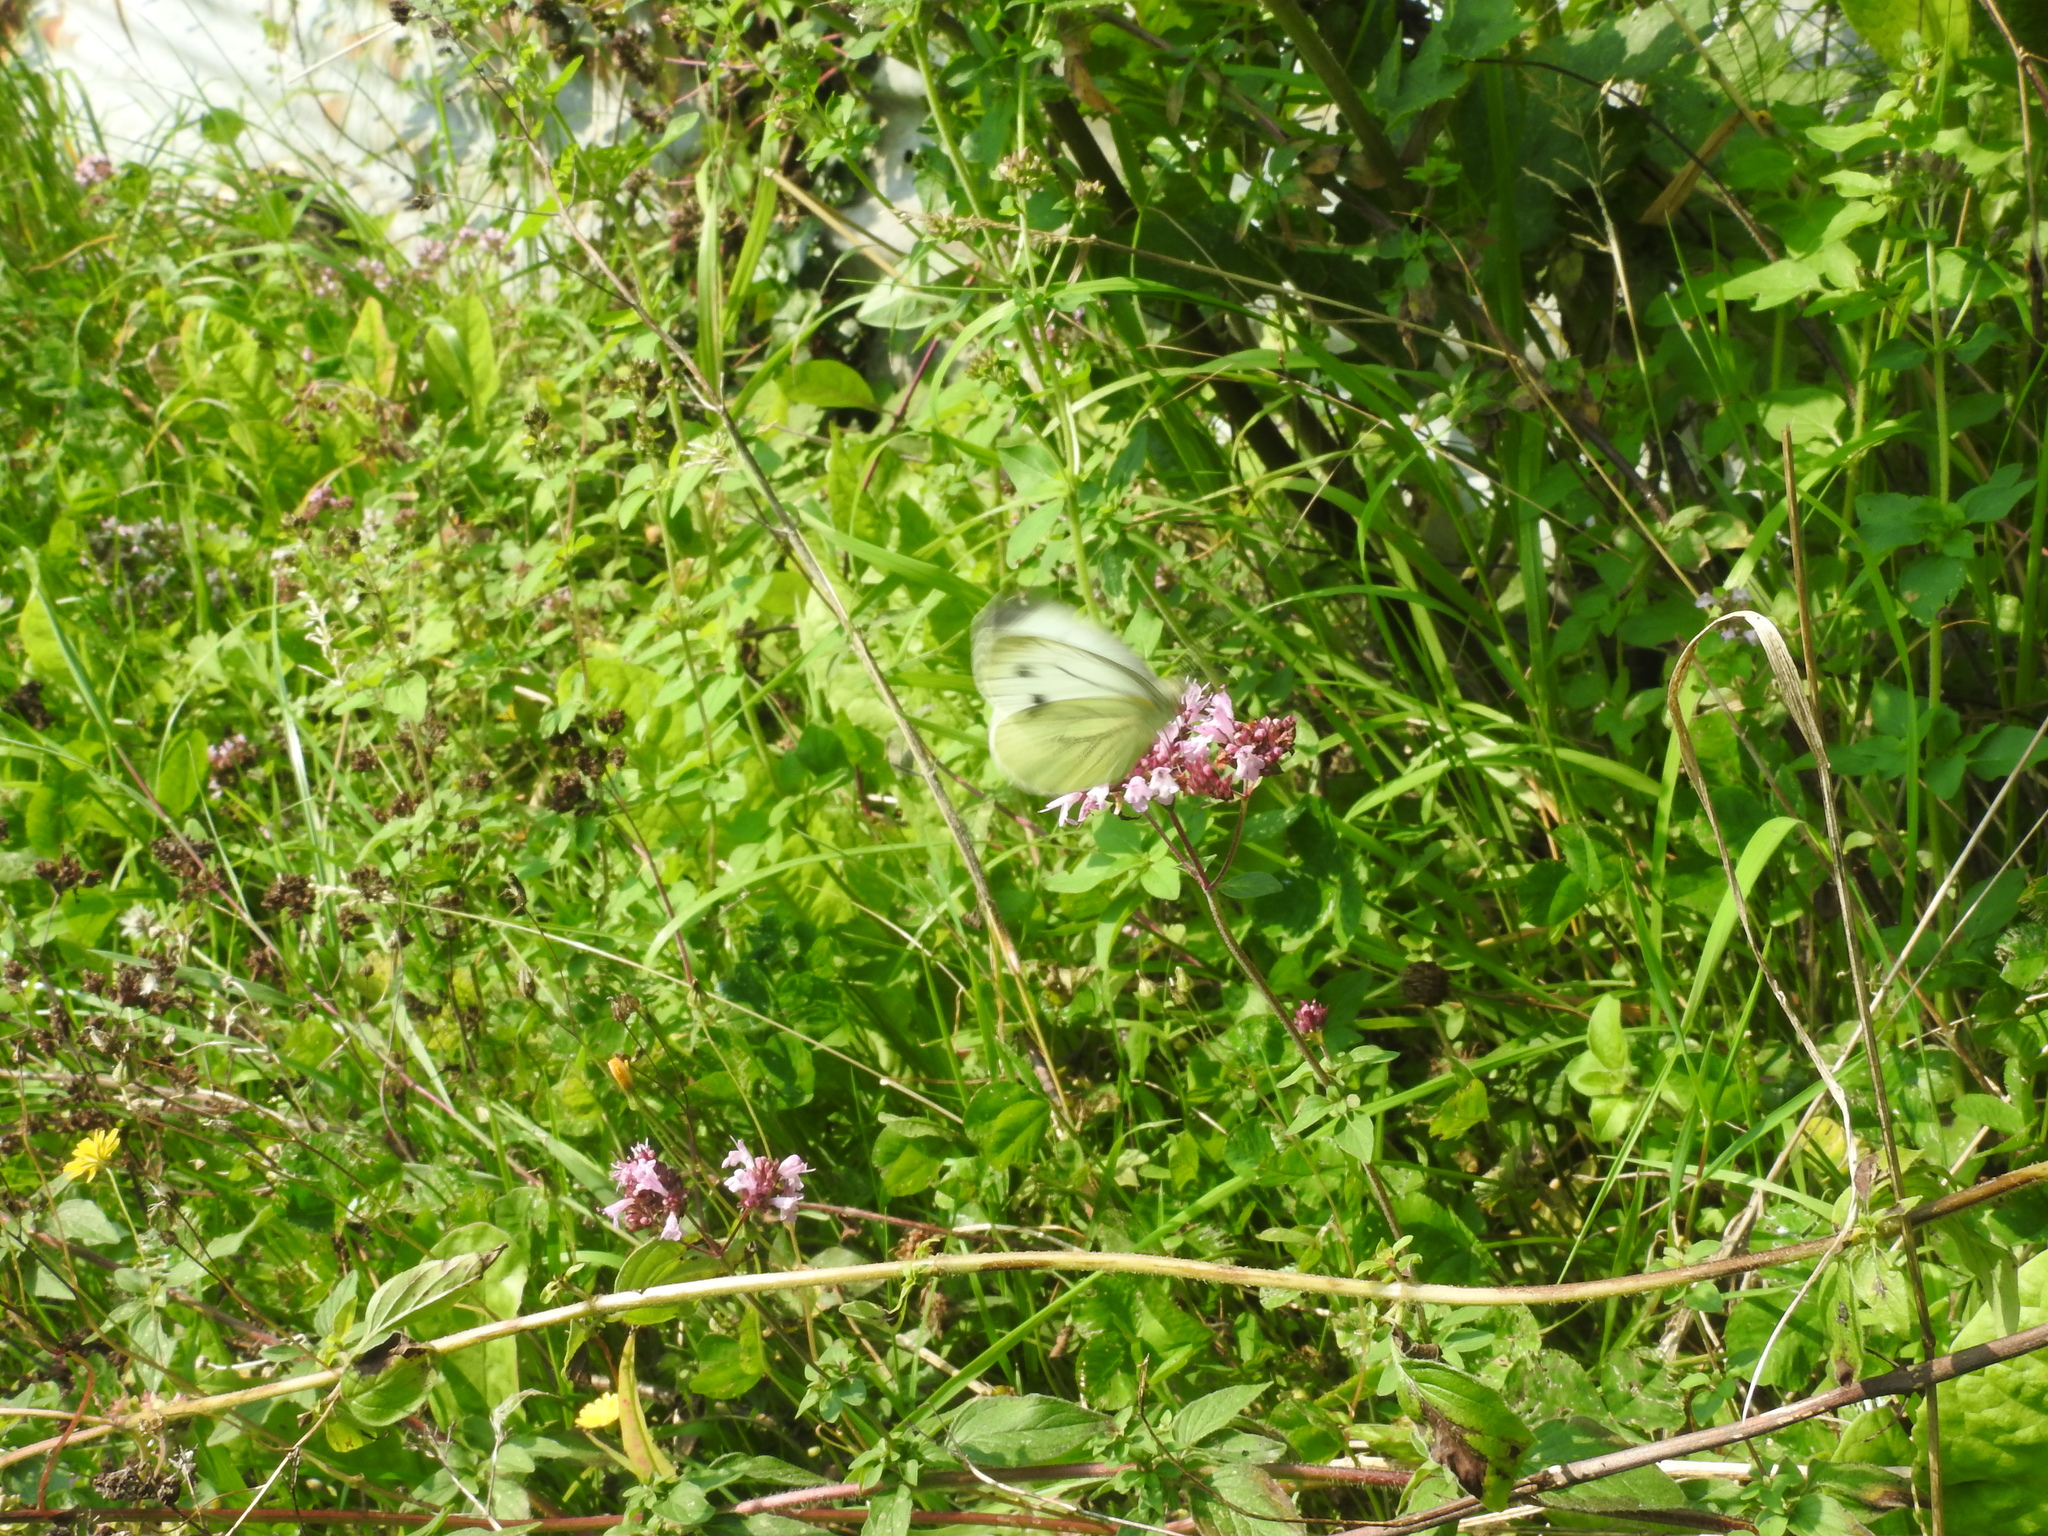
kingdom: Animalia
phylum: Arthropoda
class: Insecta
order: Lepidoptera
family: Pieridae
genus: Pieris
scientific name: Pieris napi
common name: Green-veined white
